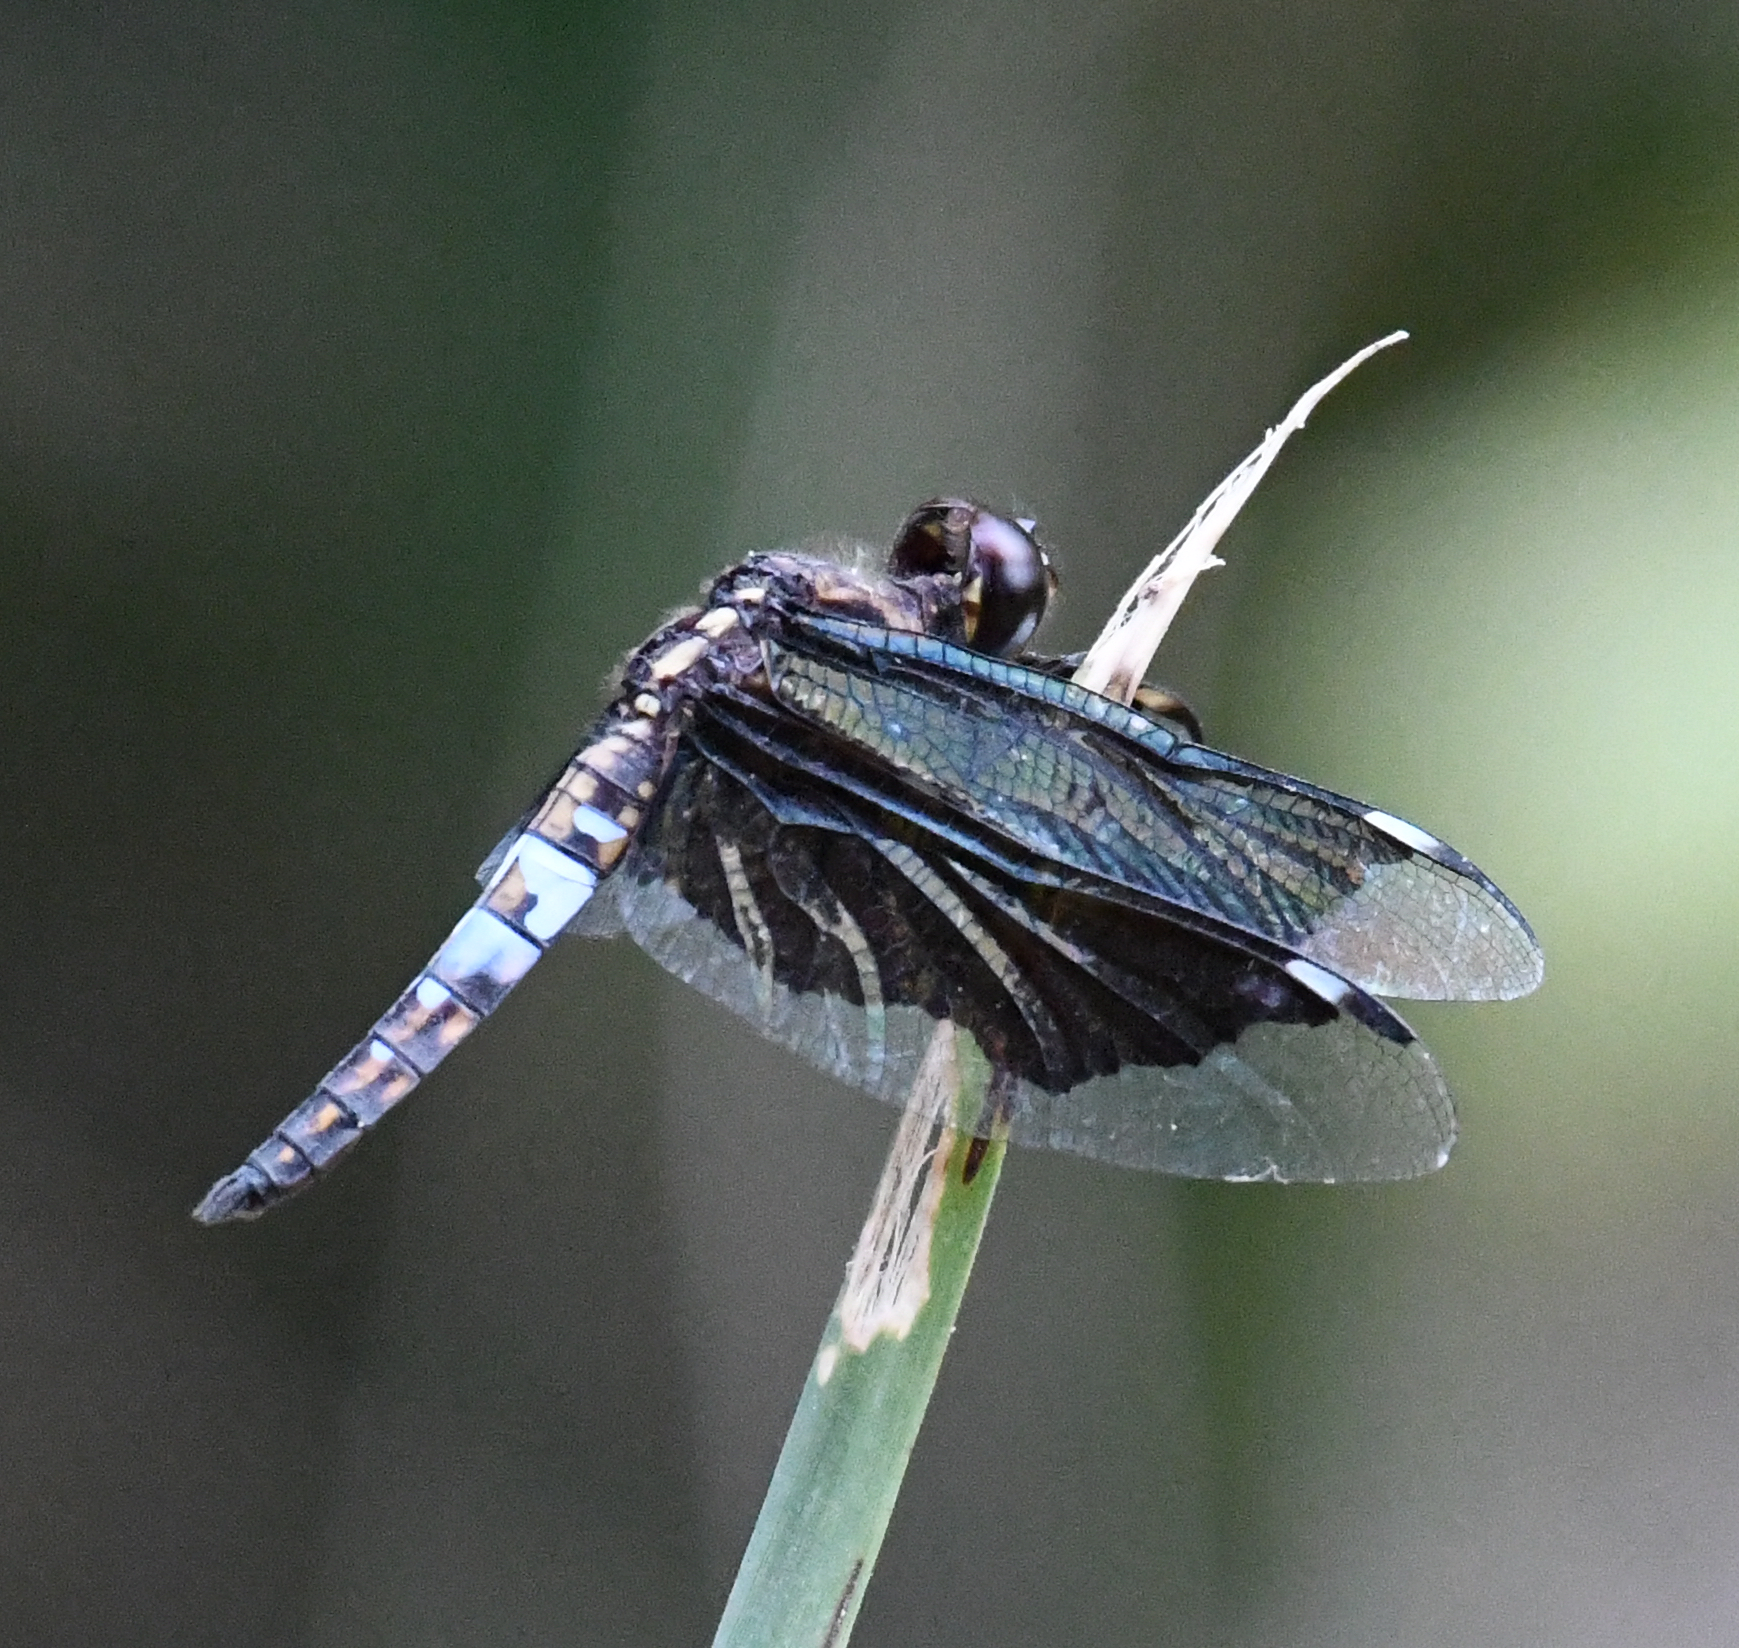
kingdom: Animalia
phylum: Arthropoda
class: Insecta
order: Odonata
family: Libellulidae
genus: Palpopleura
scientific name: Palpopleura lucia
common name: Lucia widow
